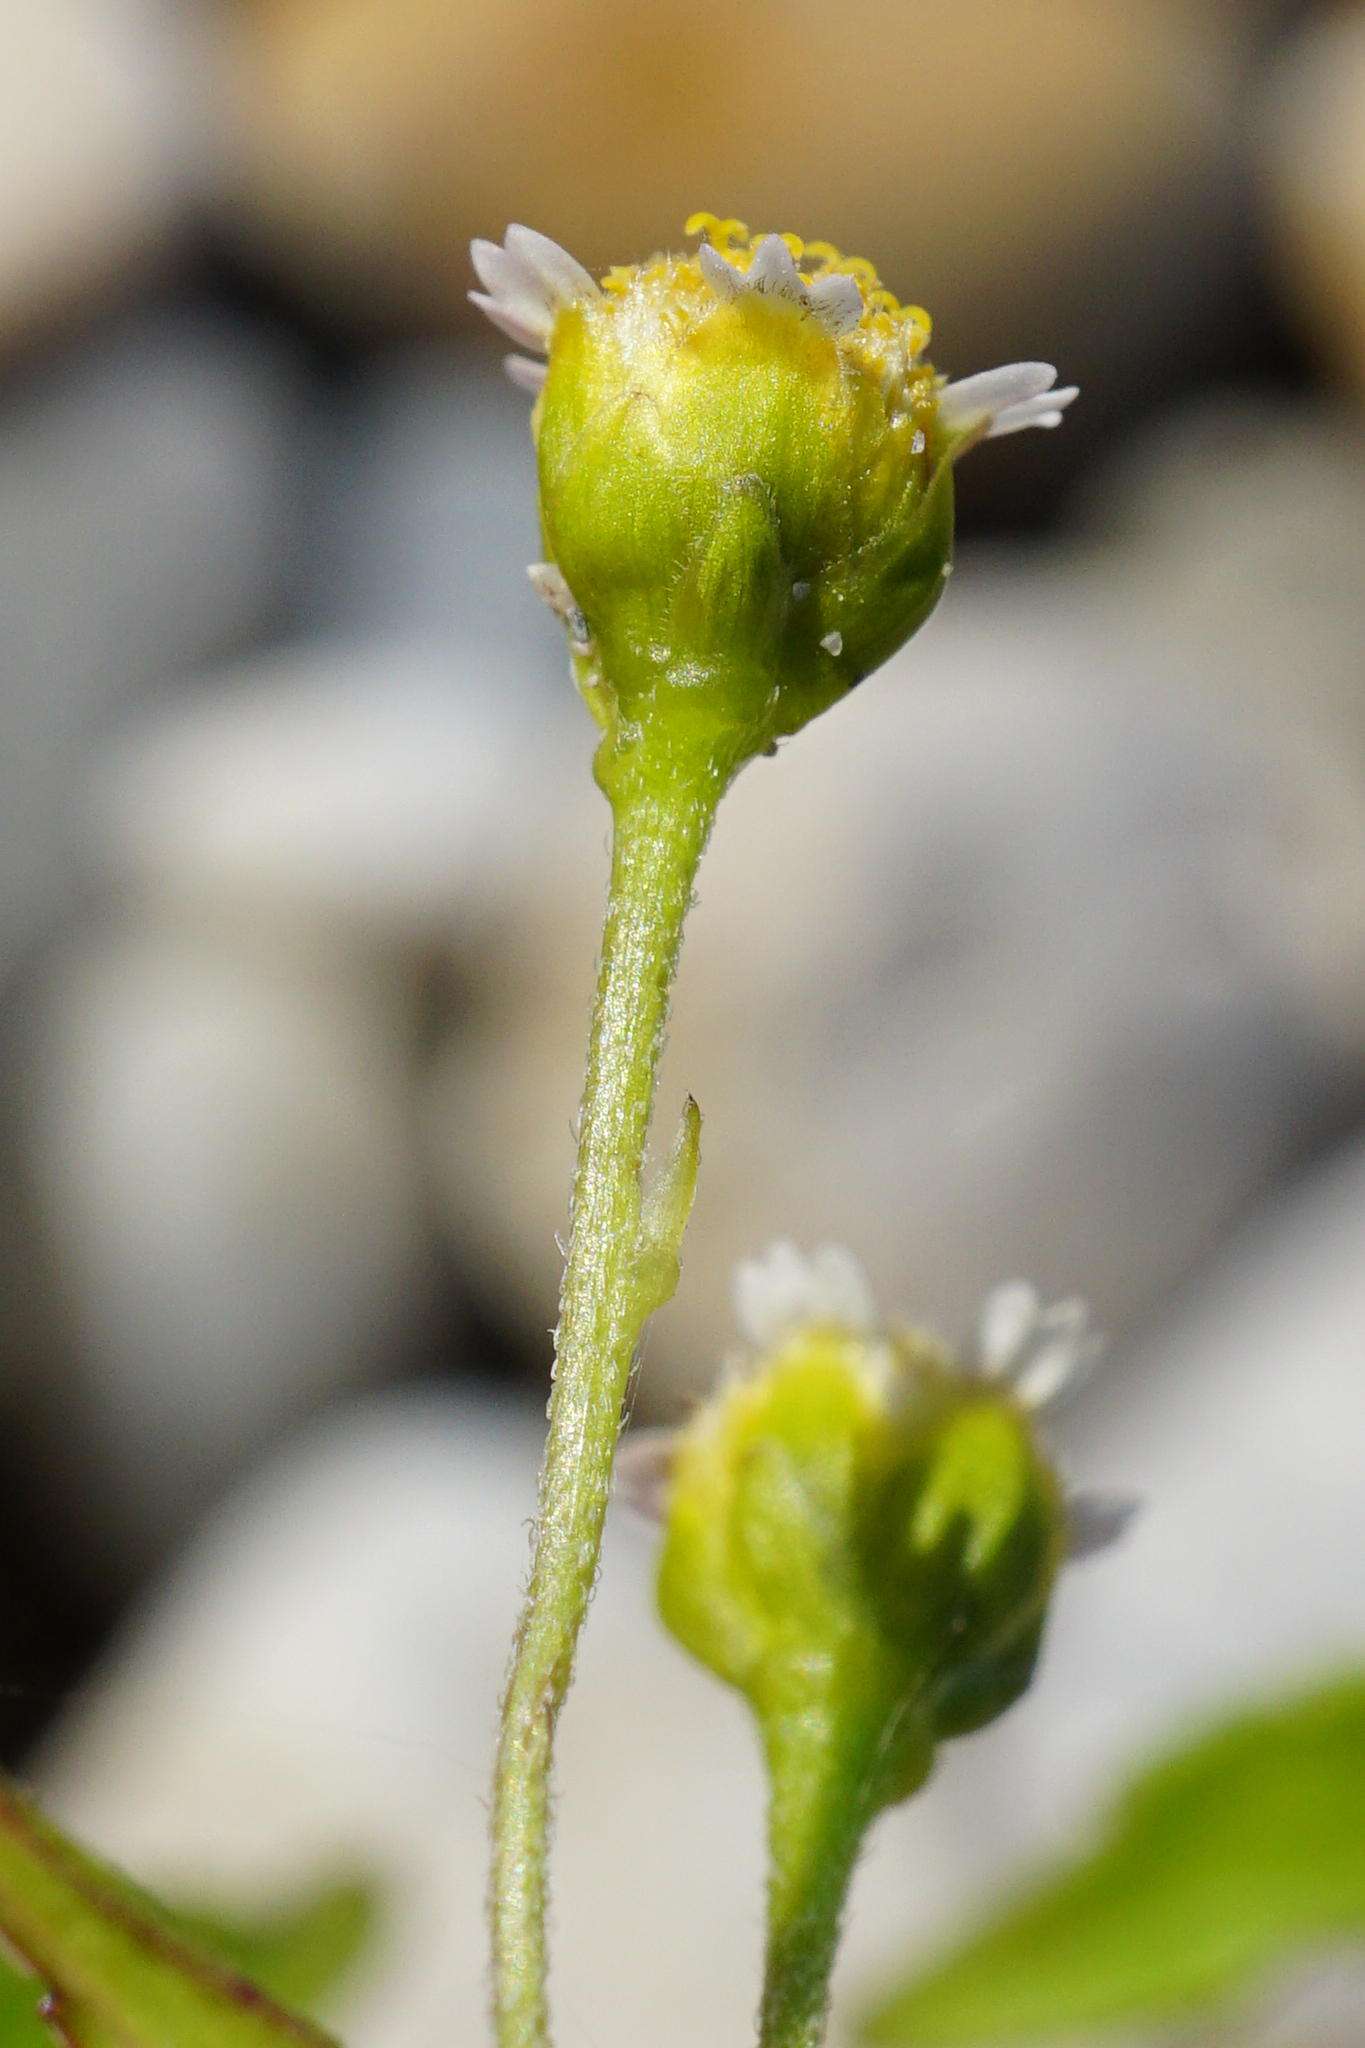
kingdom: Plantae
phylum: Tracheophyta
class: Magnoliopsida
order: Asterales
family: Asteraceae
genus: Galinsoga
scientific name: Galinsoga parviflora
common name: Gallant soldier
